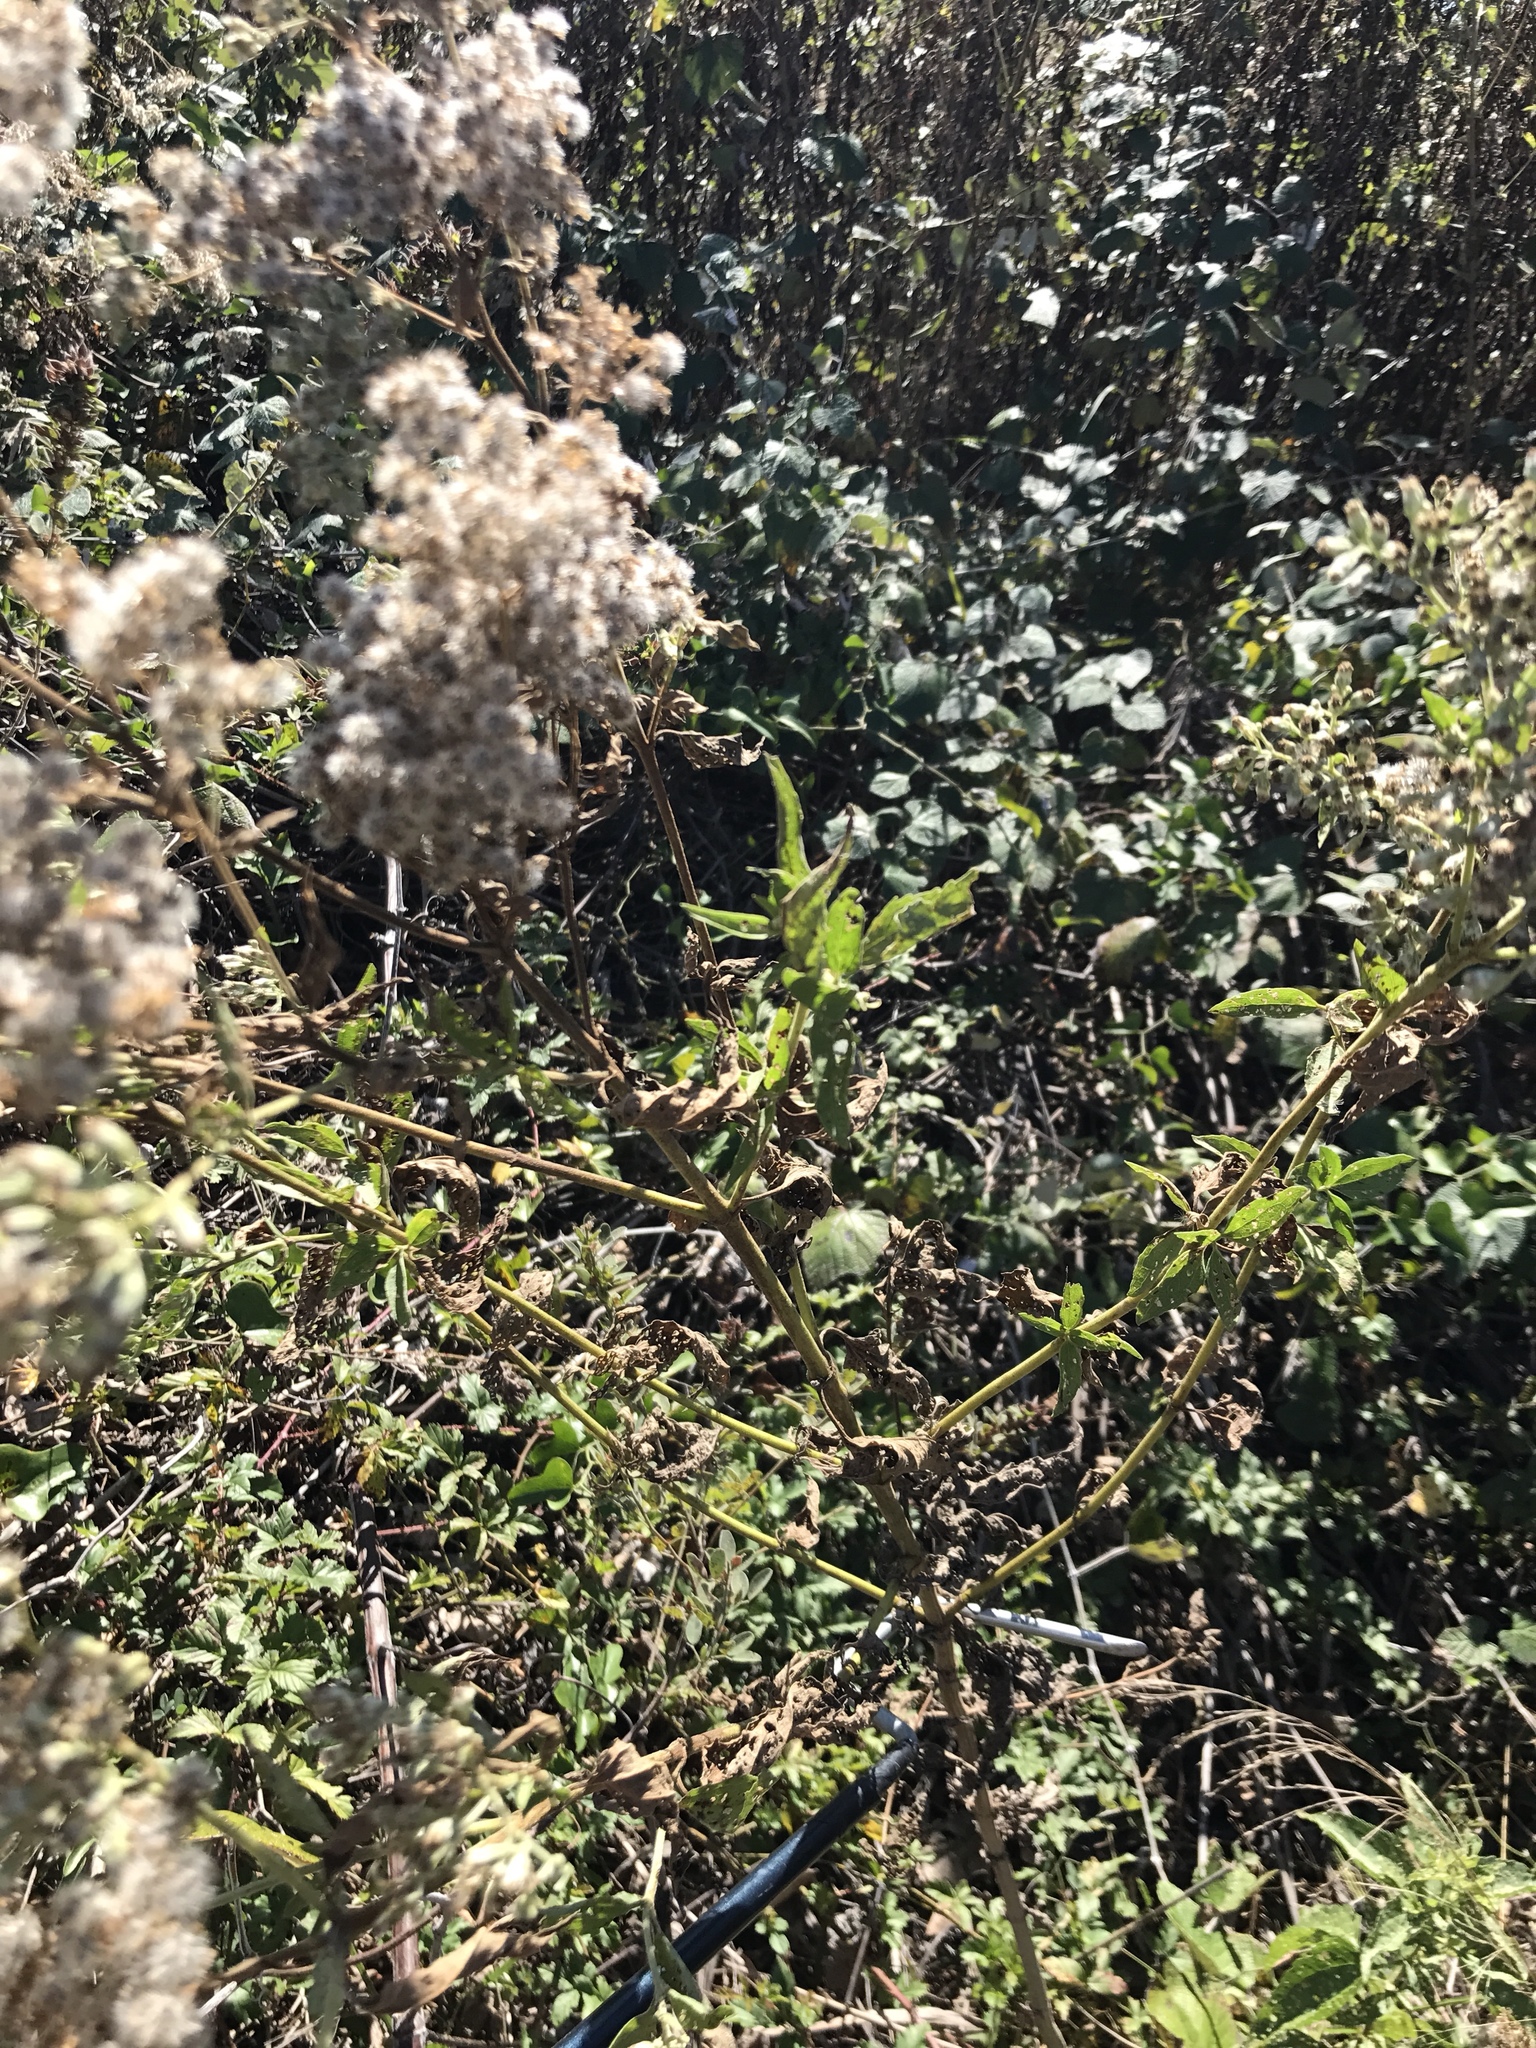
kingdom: Plantae
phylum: Tracheophyta
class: Magnoliopsida
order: Asterales
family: Asteraceae
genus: Eupatorium
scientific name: Eupatorium serotinum
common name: Late boneset
